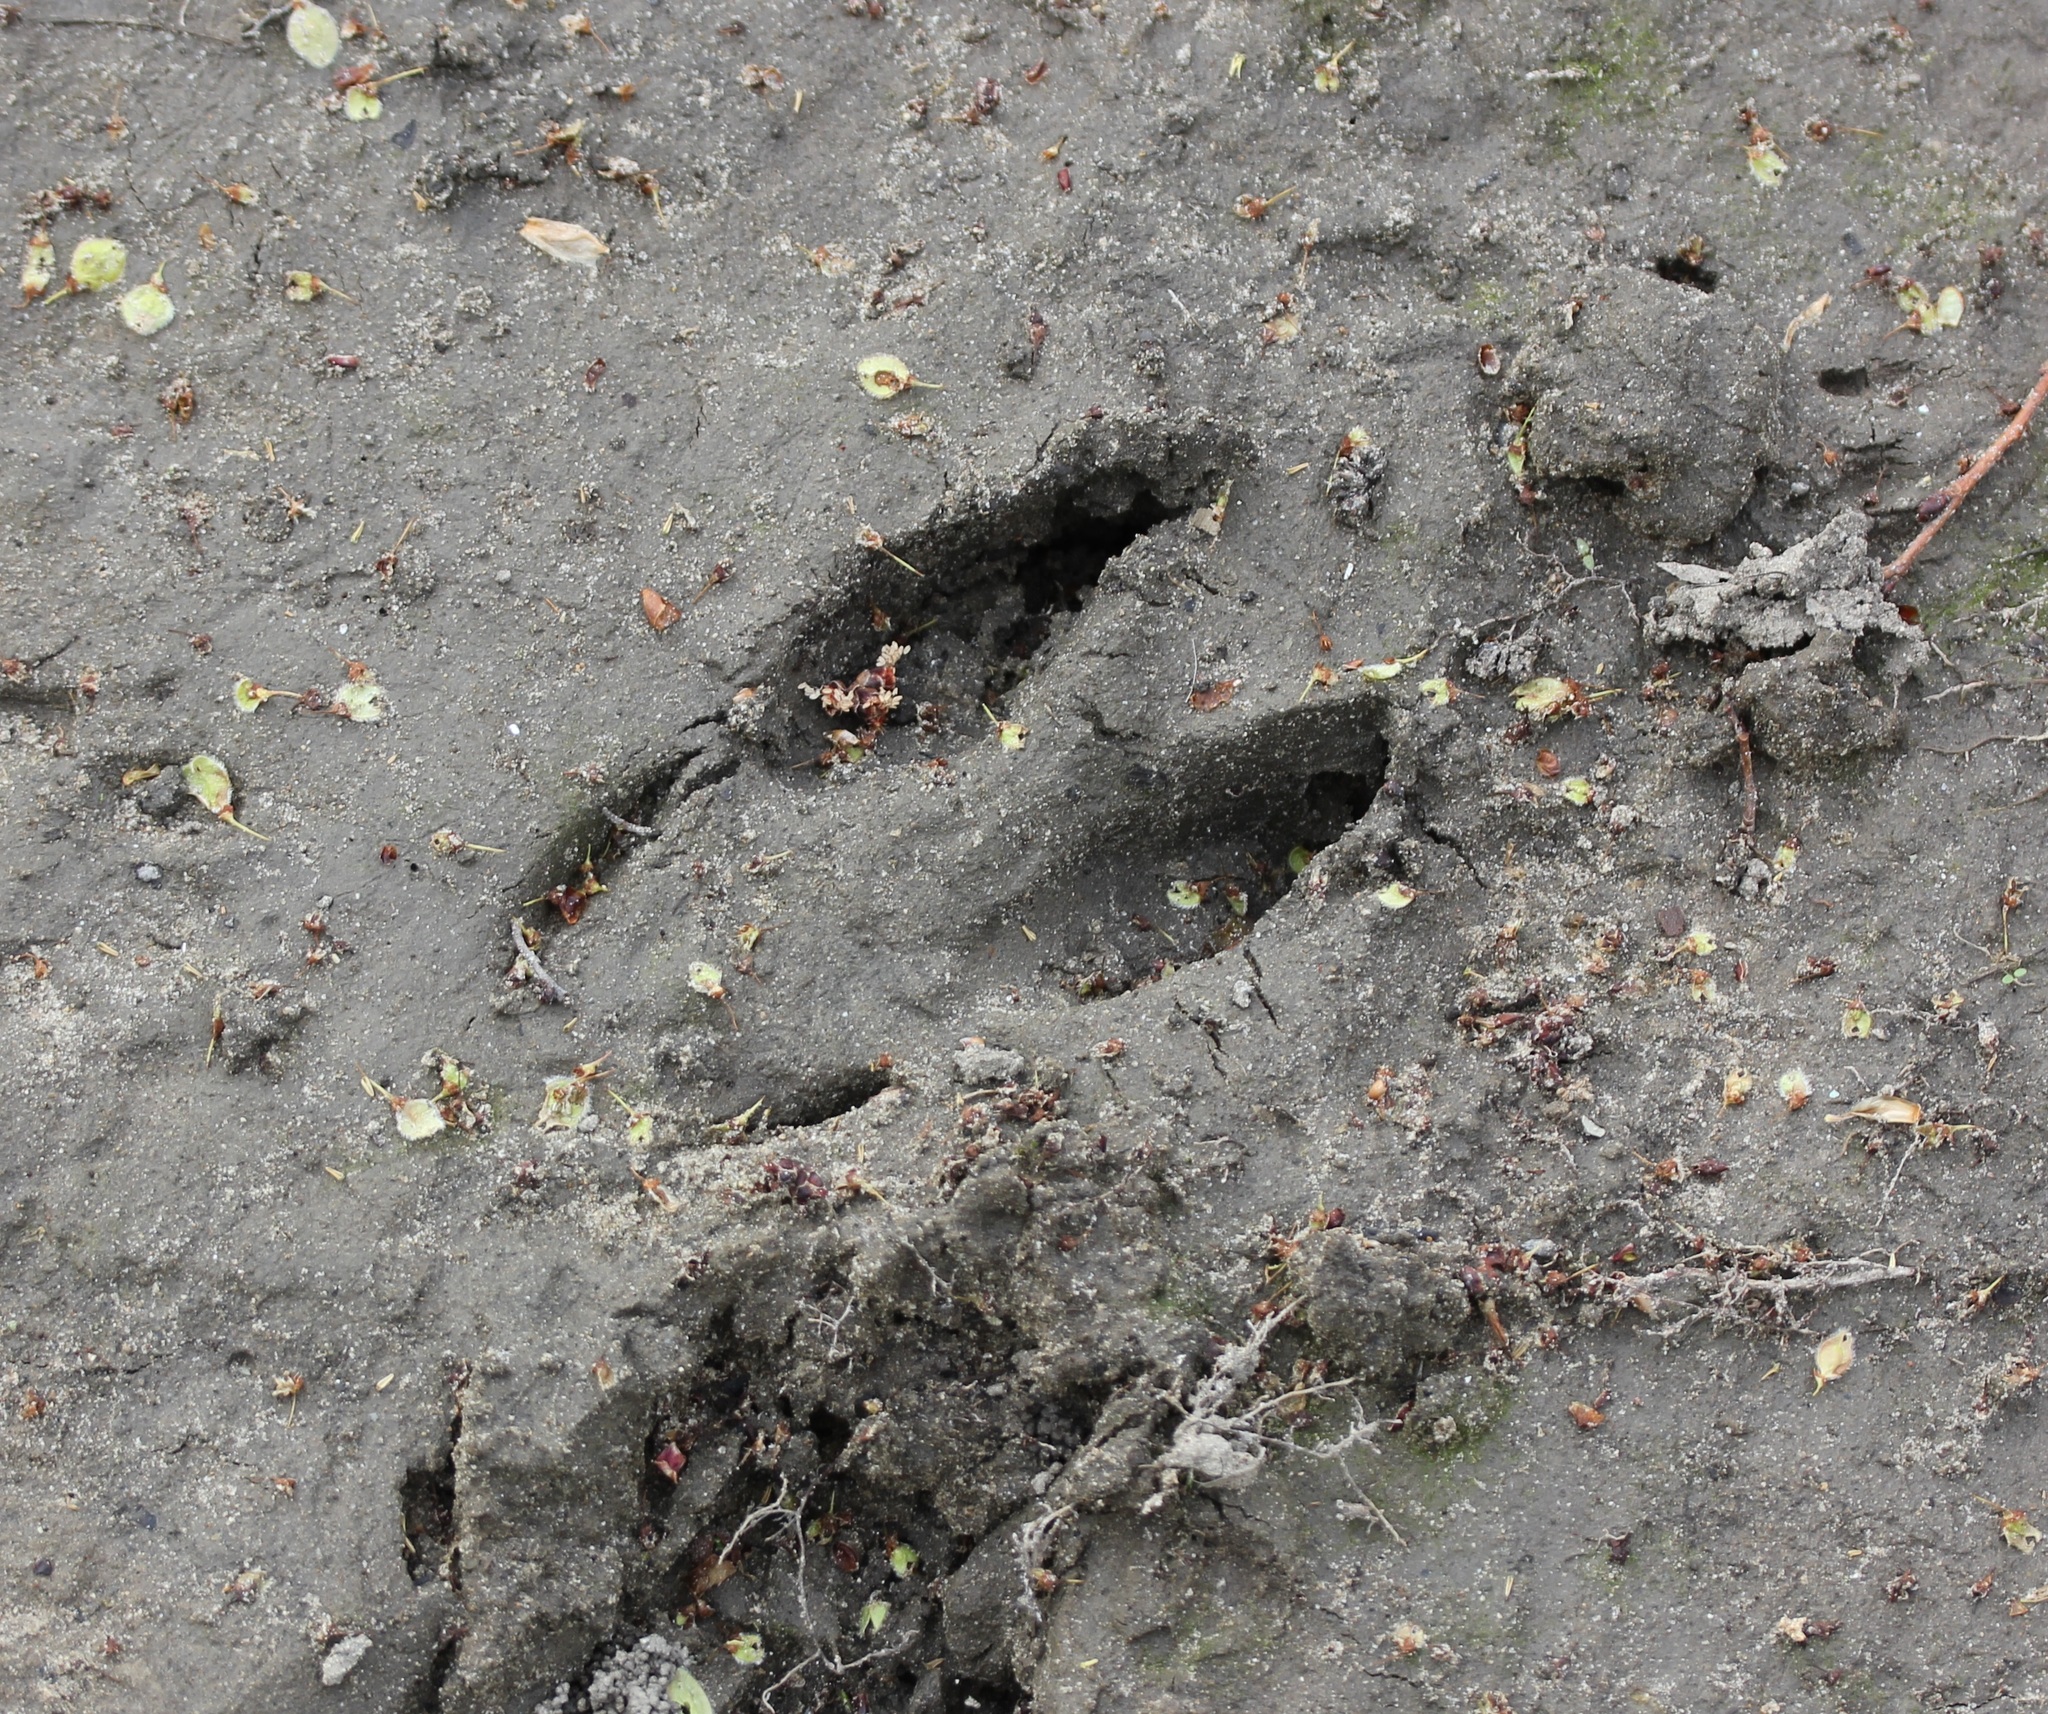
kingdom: Animalia
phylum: Chordata
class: Mammalia
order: Artiodactyla
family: Cervidae
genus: Odocoileus
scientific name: Odocoileus virginianus
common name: White-tailed deer
